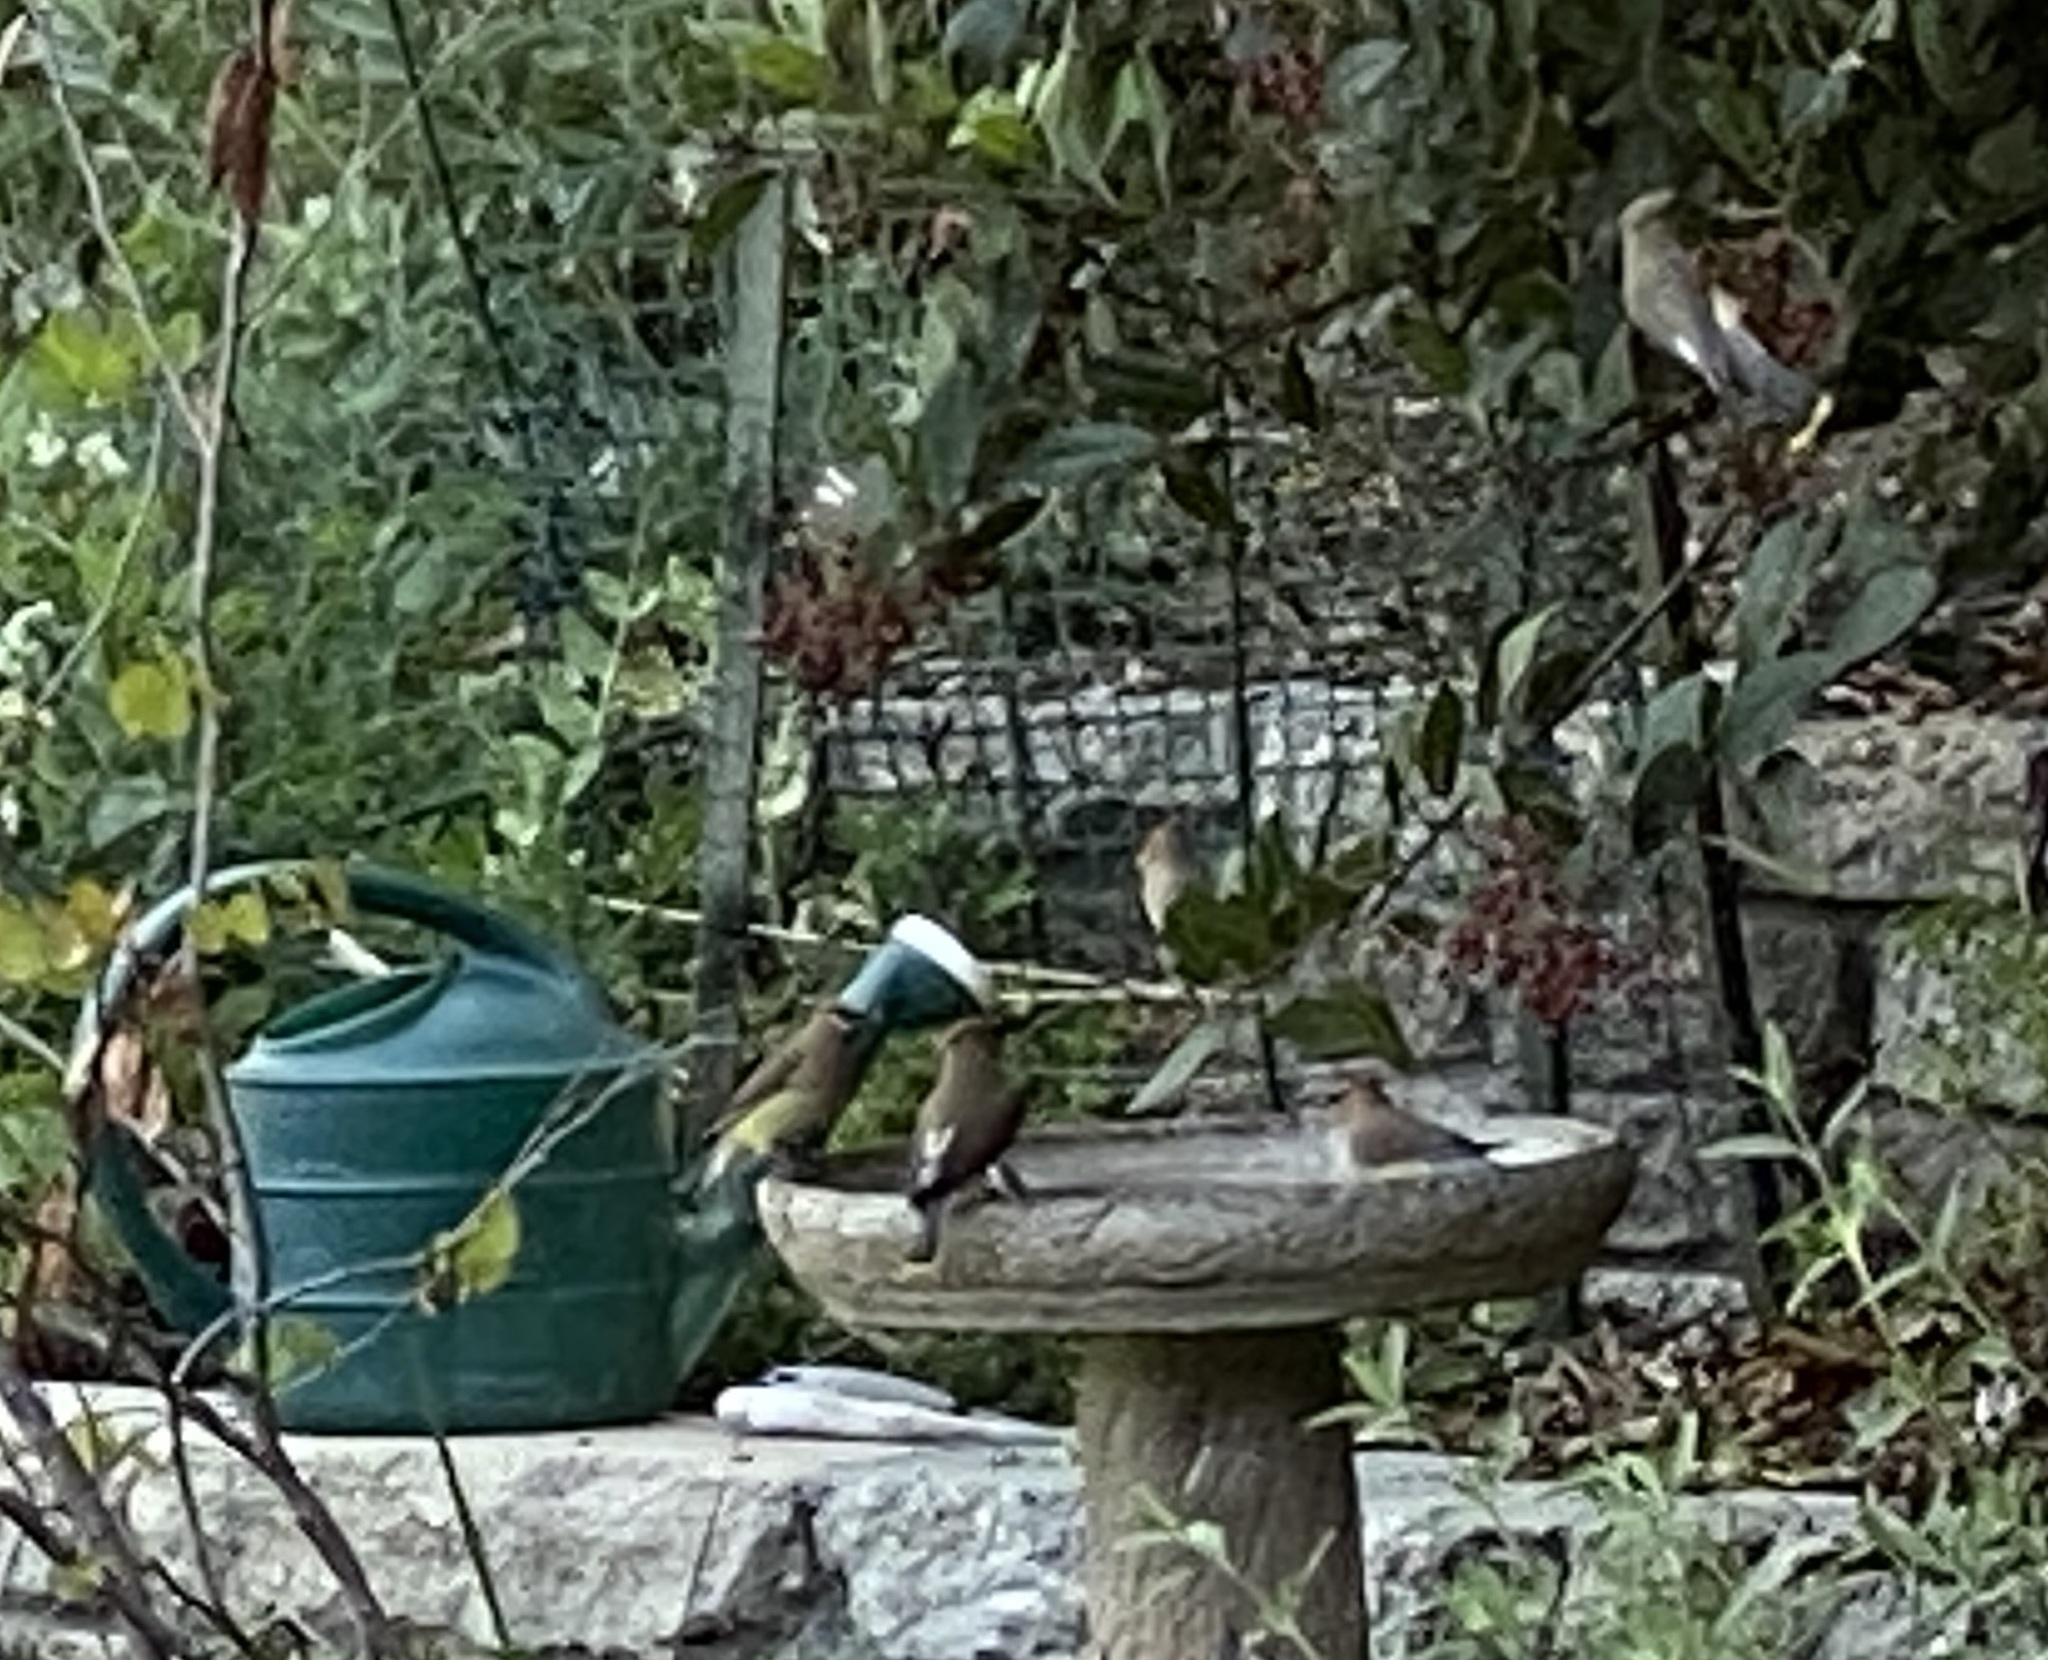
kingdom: Animalia
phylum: Chordata
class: Aves
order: Passeriformes
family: Bombycillidae
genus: Bombycilla
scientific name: Bombycilla cedrorum
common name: Cedar waxwing
